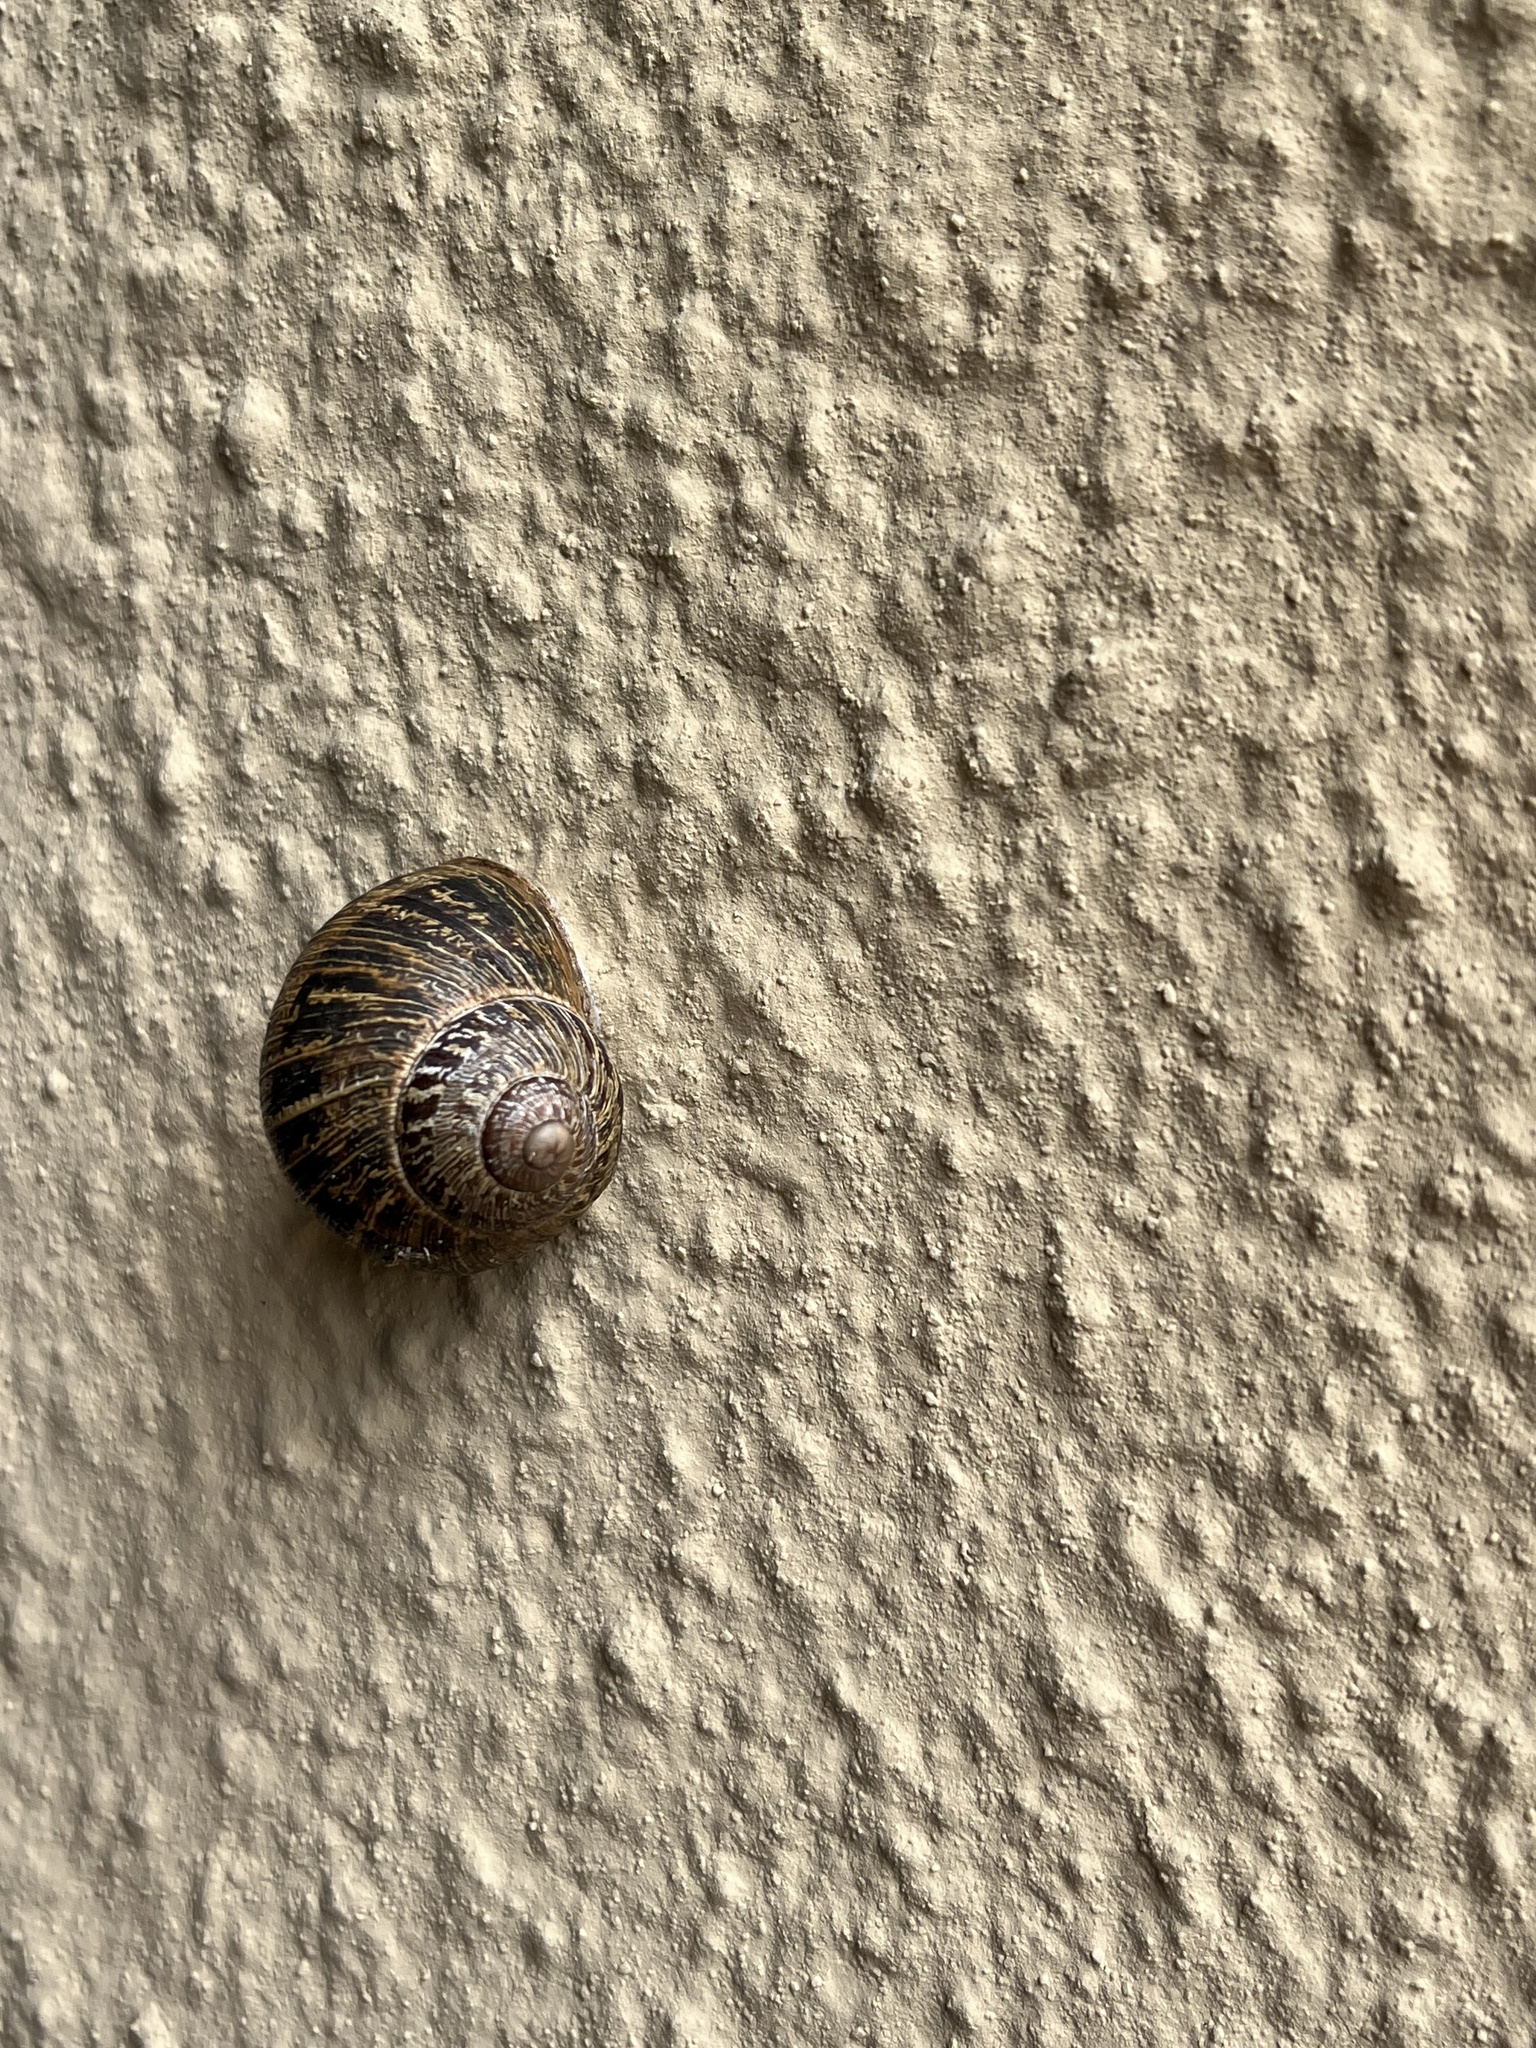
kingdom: Animalia
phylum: Mollusca
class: Gastropoda
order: Stylommatophora
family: Helicidae
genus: Cornu
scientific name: Cornu aspersum
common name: Brown garden snail
